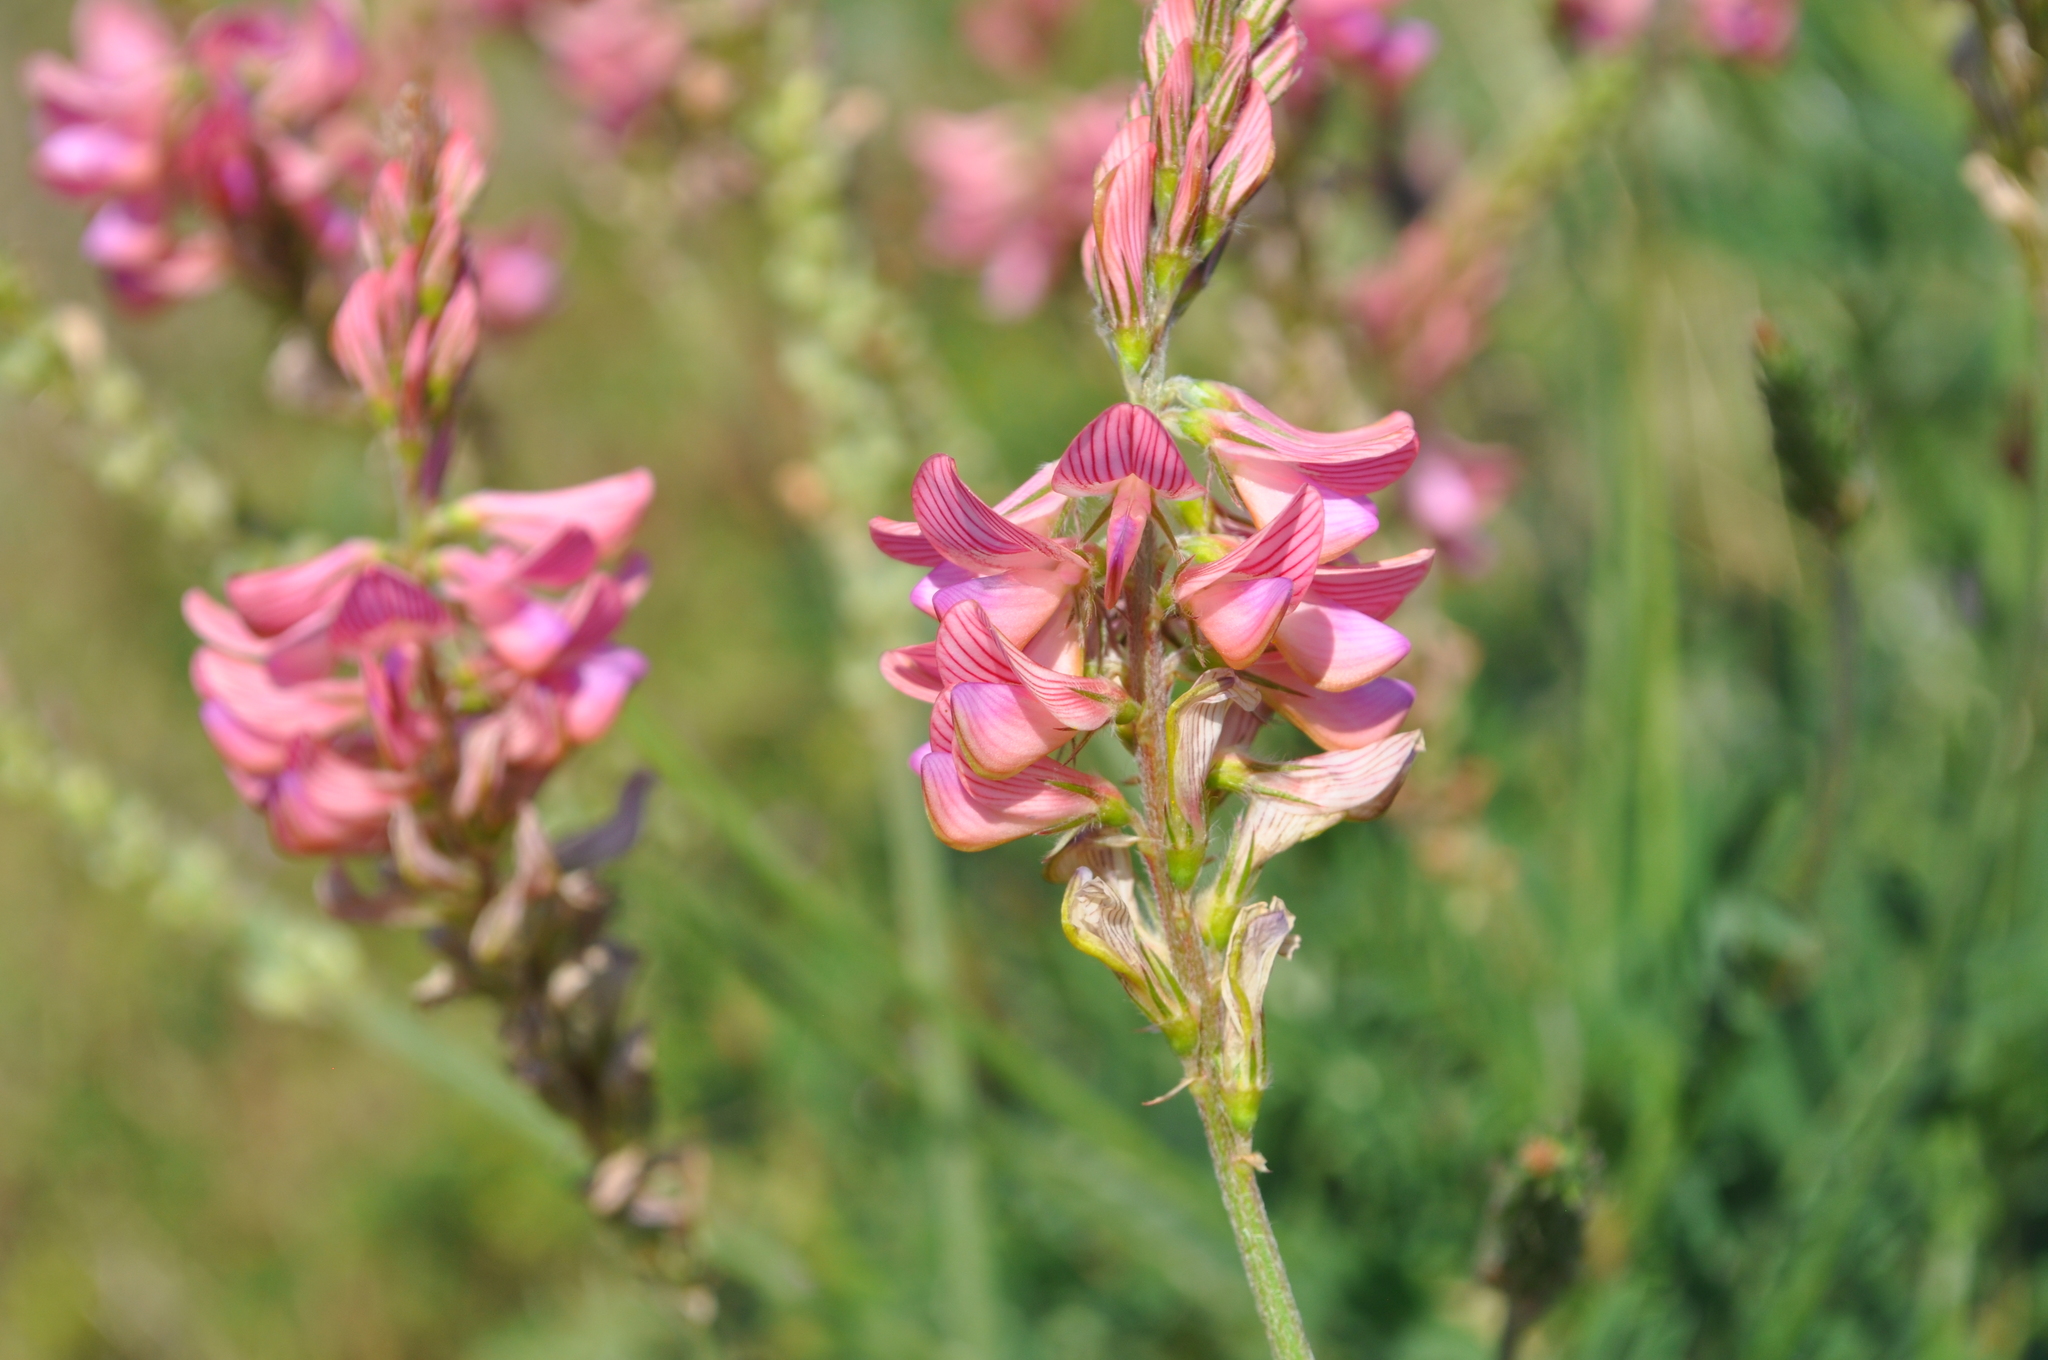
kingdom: Plantae
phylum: Tracheophyta
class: Magnoliopsida
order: Fabales
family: Fabaceae
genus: Onobrychis
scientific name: Onobrychis viciifolia
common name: Sainfoin
